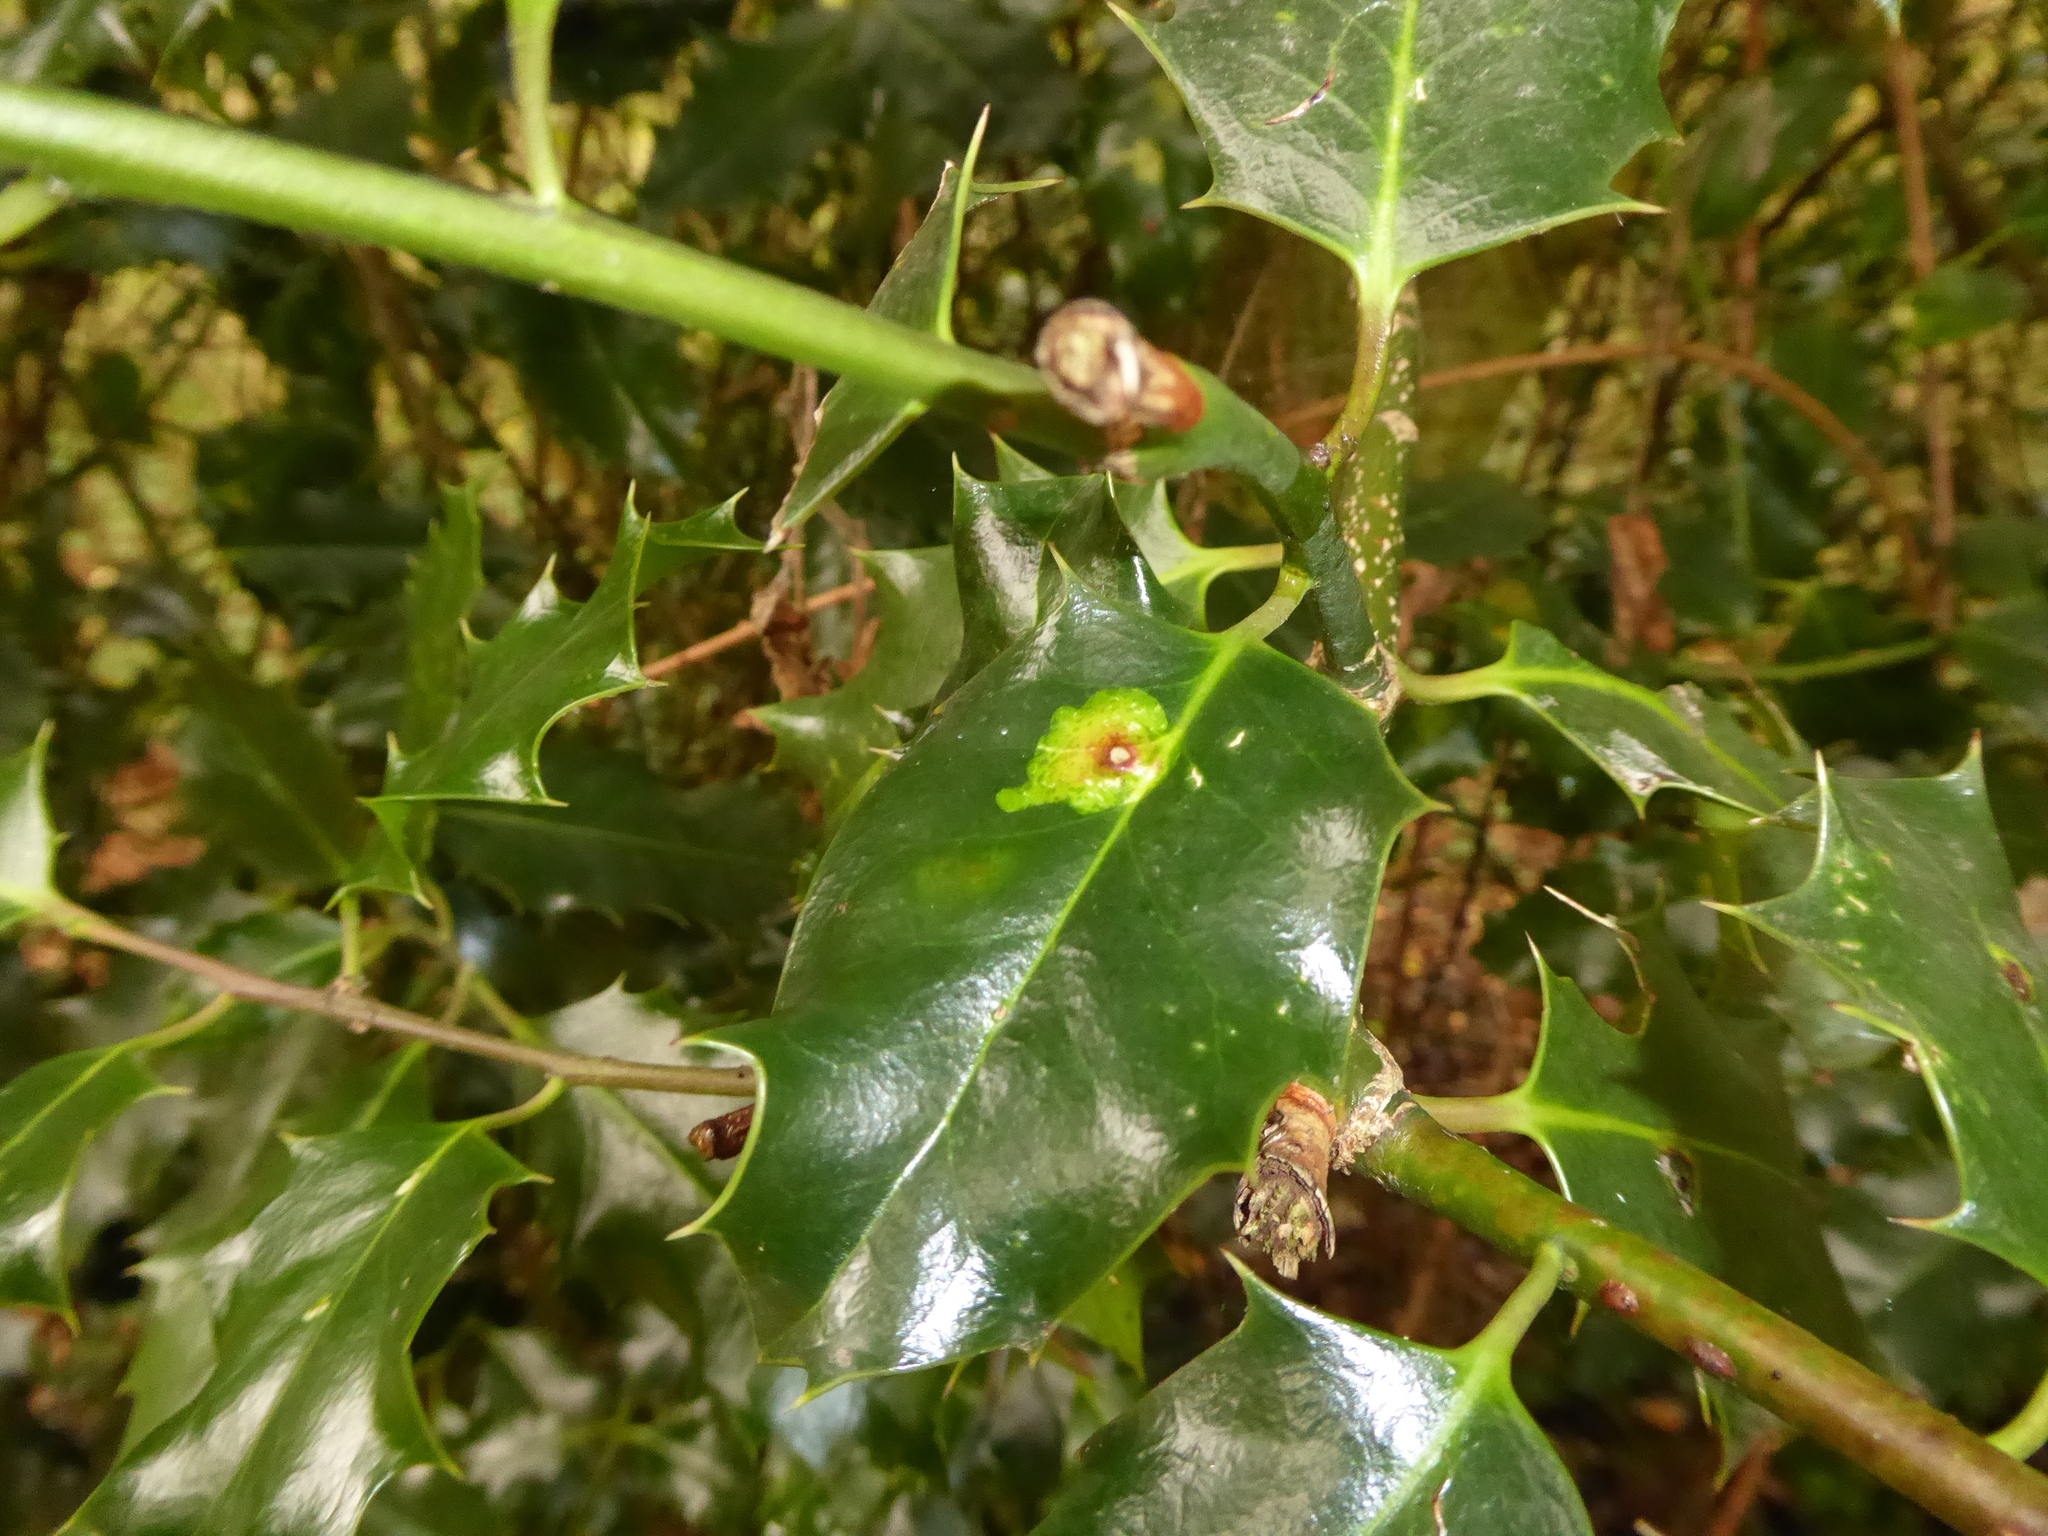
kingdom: Animalia
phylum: Arthropoda
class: Insecta
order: Diptera
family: Agromyzidae
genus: Phytomyza
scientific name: Phytomyza ilicis
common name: Holly leafminer
